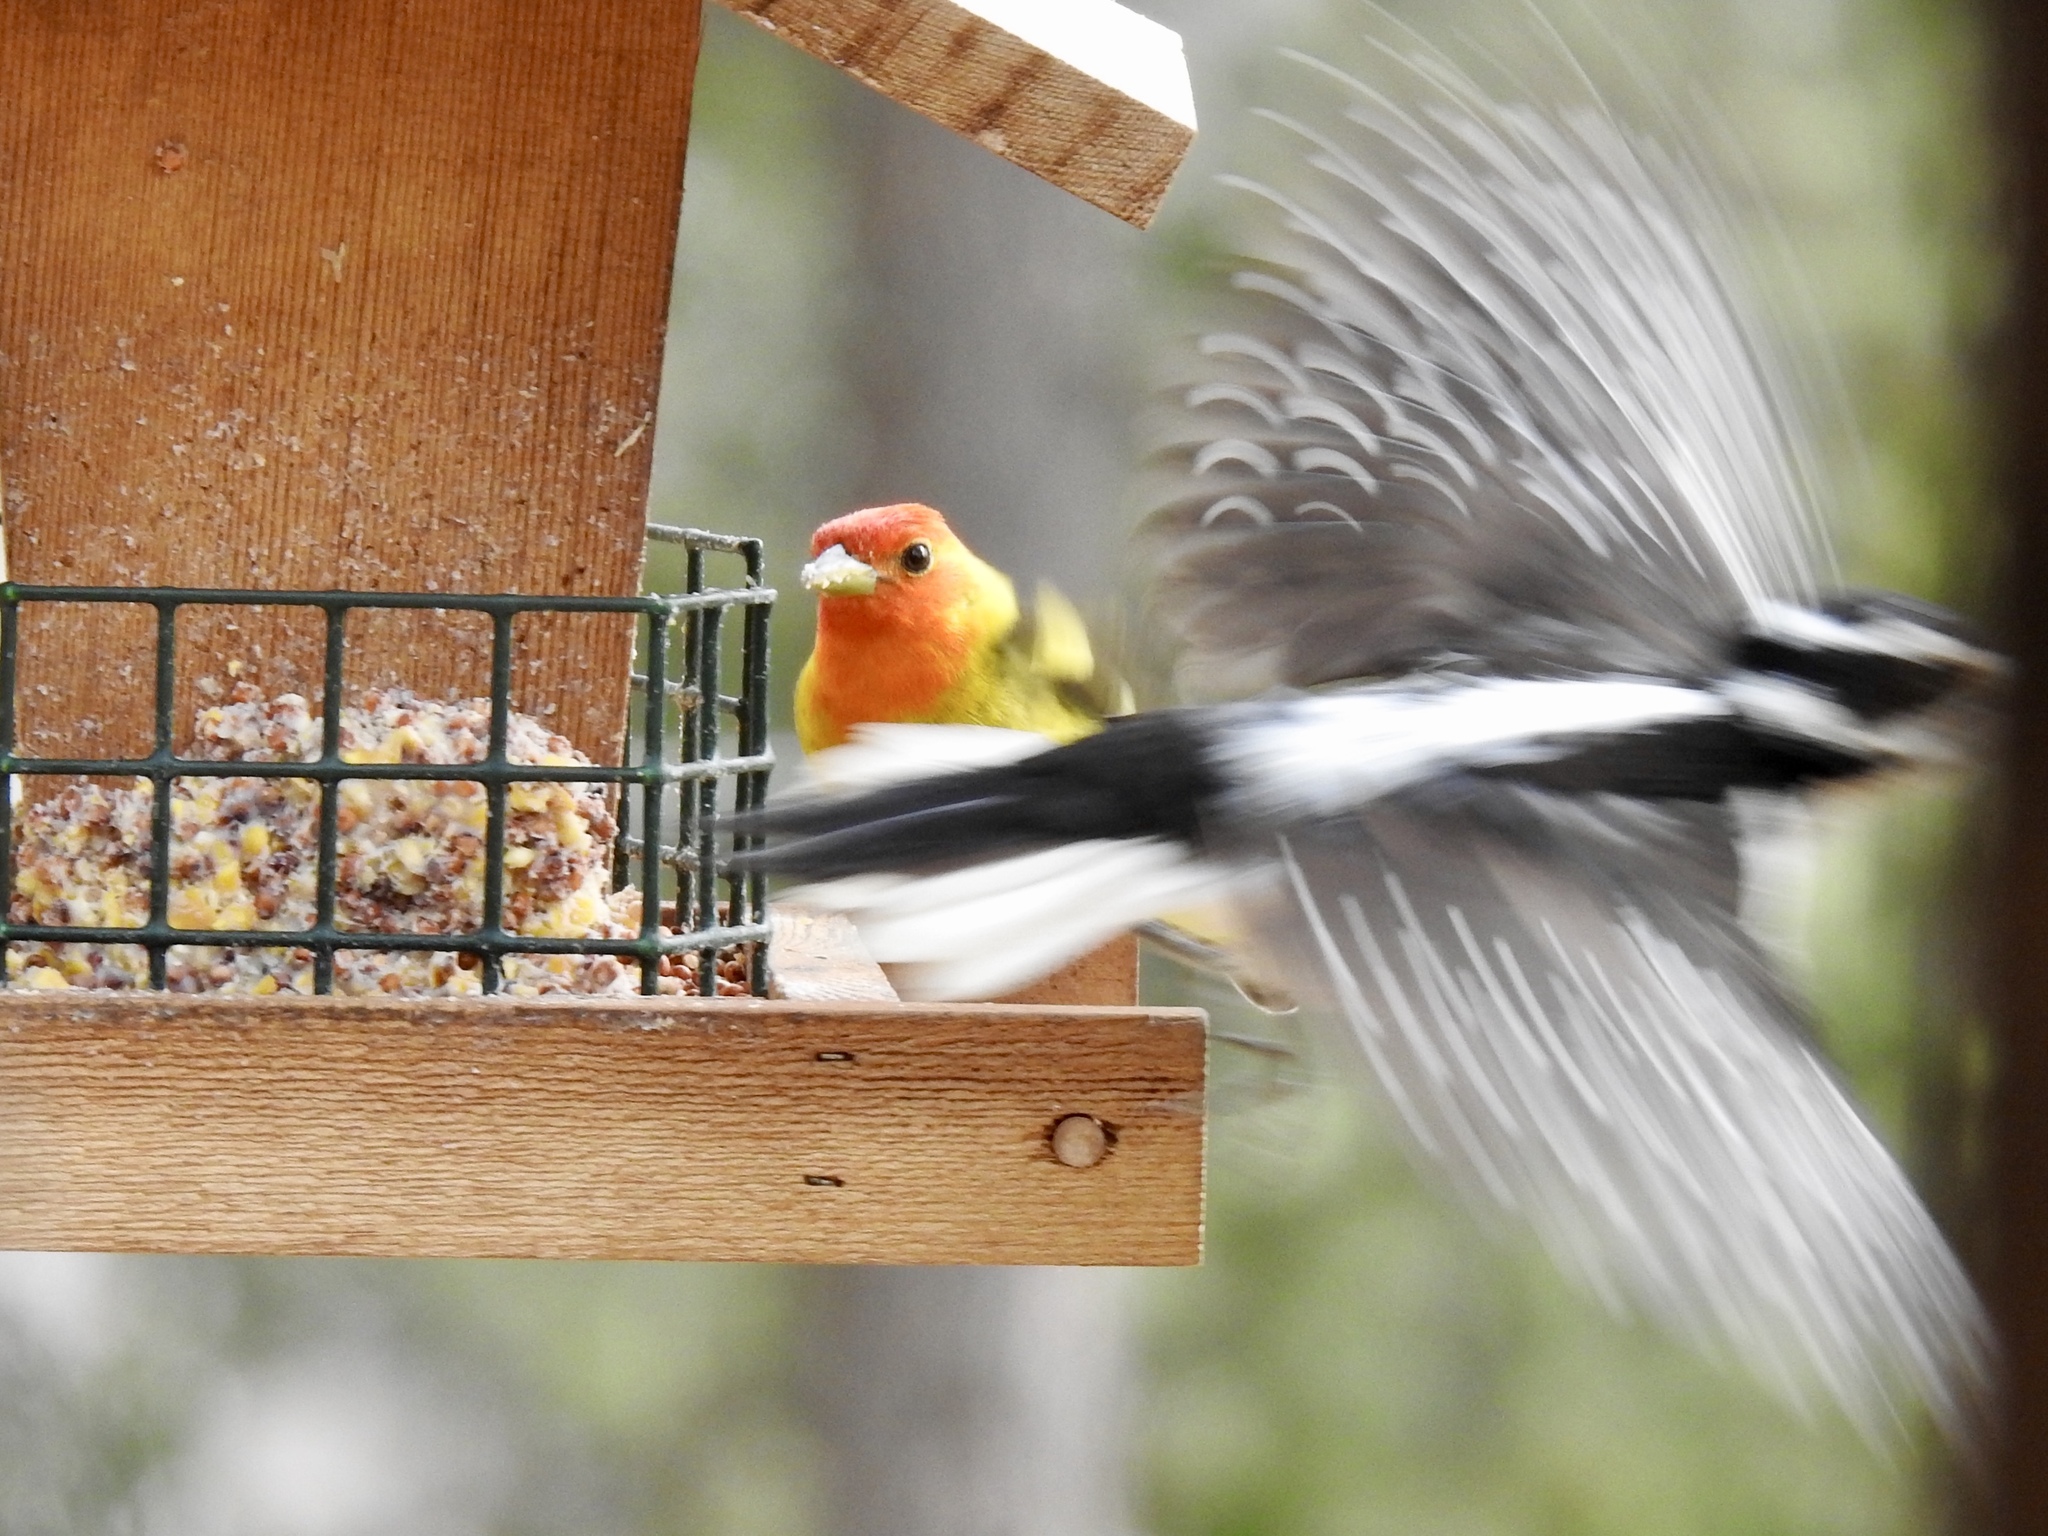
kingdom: Animalia
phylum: Chordata
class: Aves
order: Passeriformes
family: Cardinalidae
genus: Piranga
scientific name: Piranga ludoviciana
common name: Western tanager
